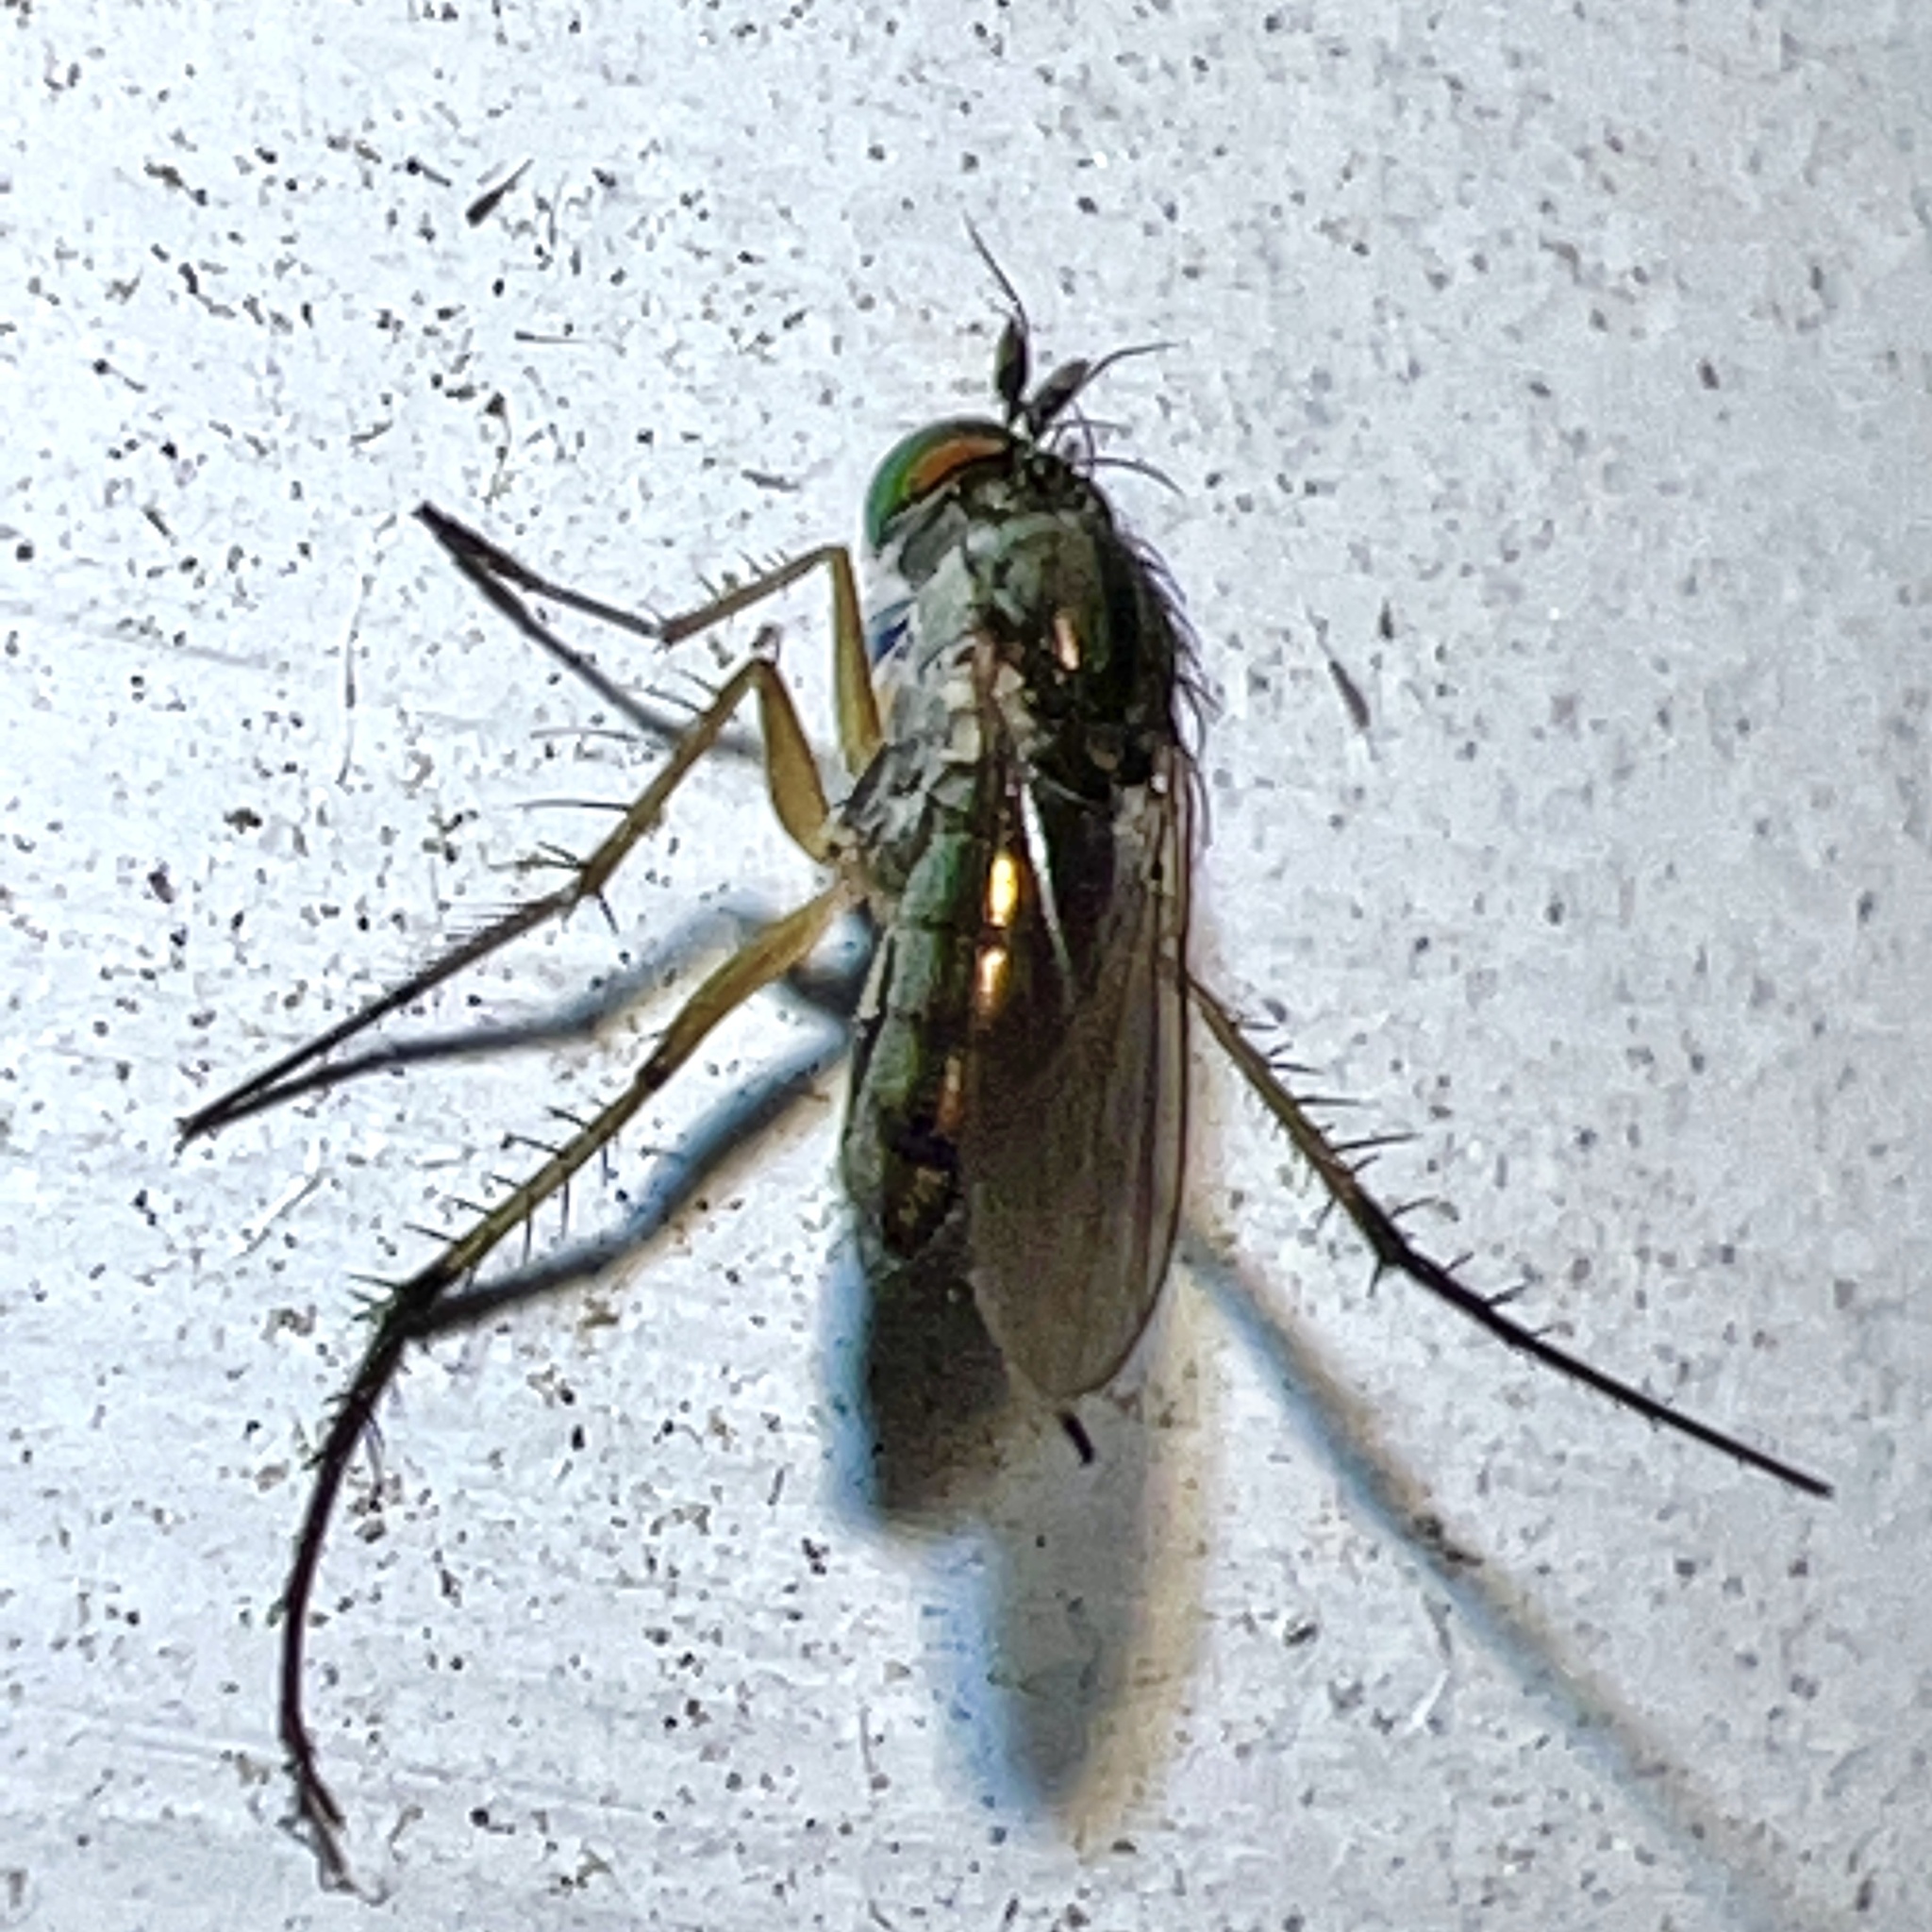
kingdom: Animalia
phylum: Arthropoda
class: Insecta
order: Diptera
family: Dolichopodidae
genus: Dolichopus
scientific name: Dolichopus comatus
